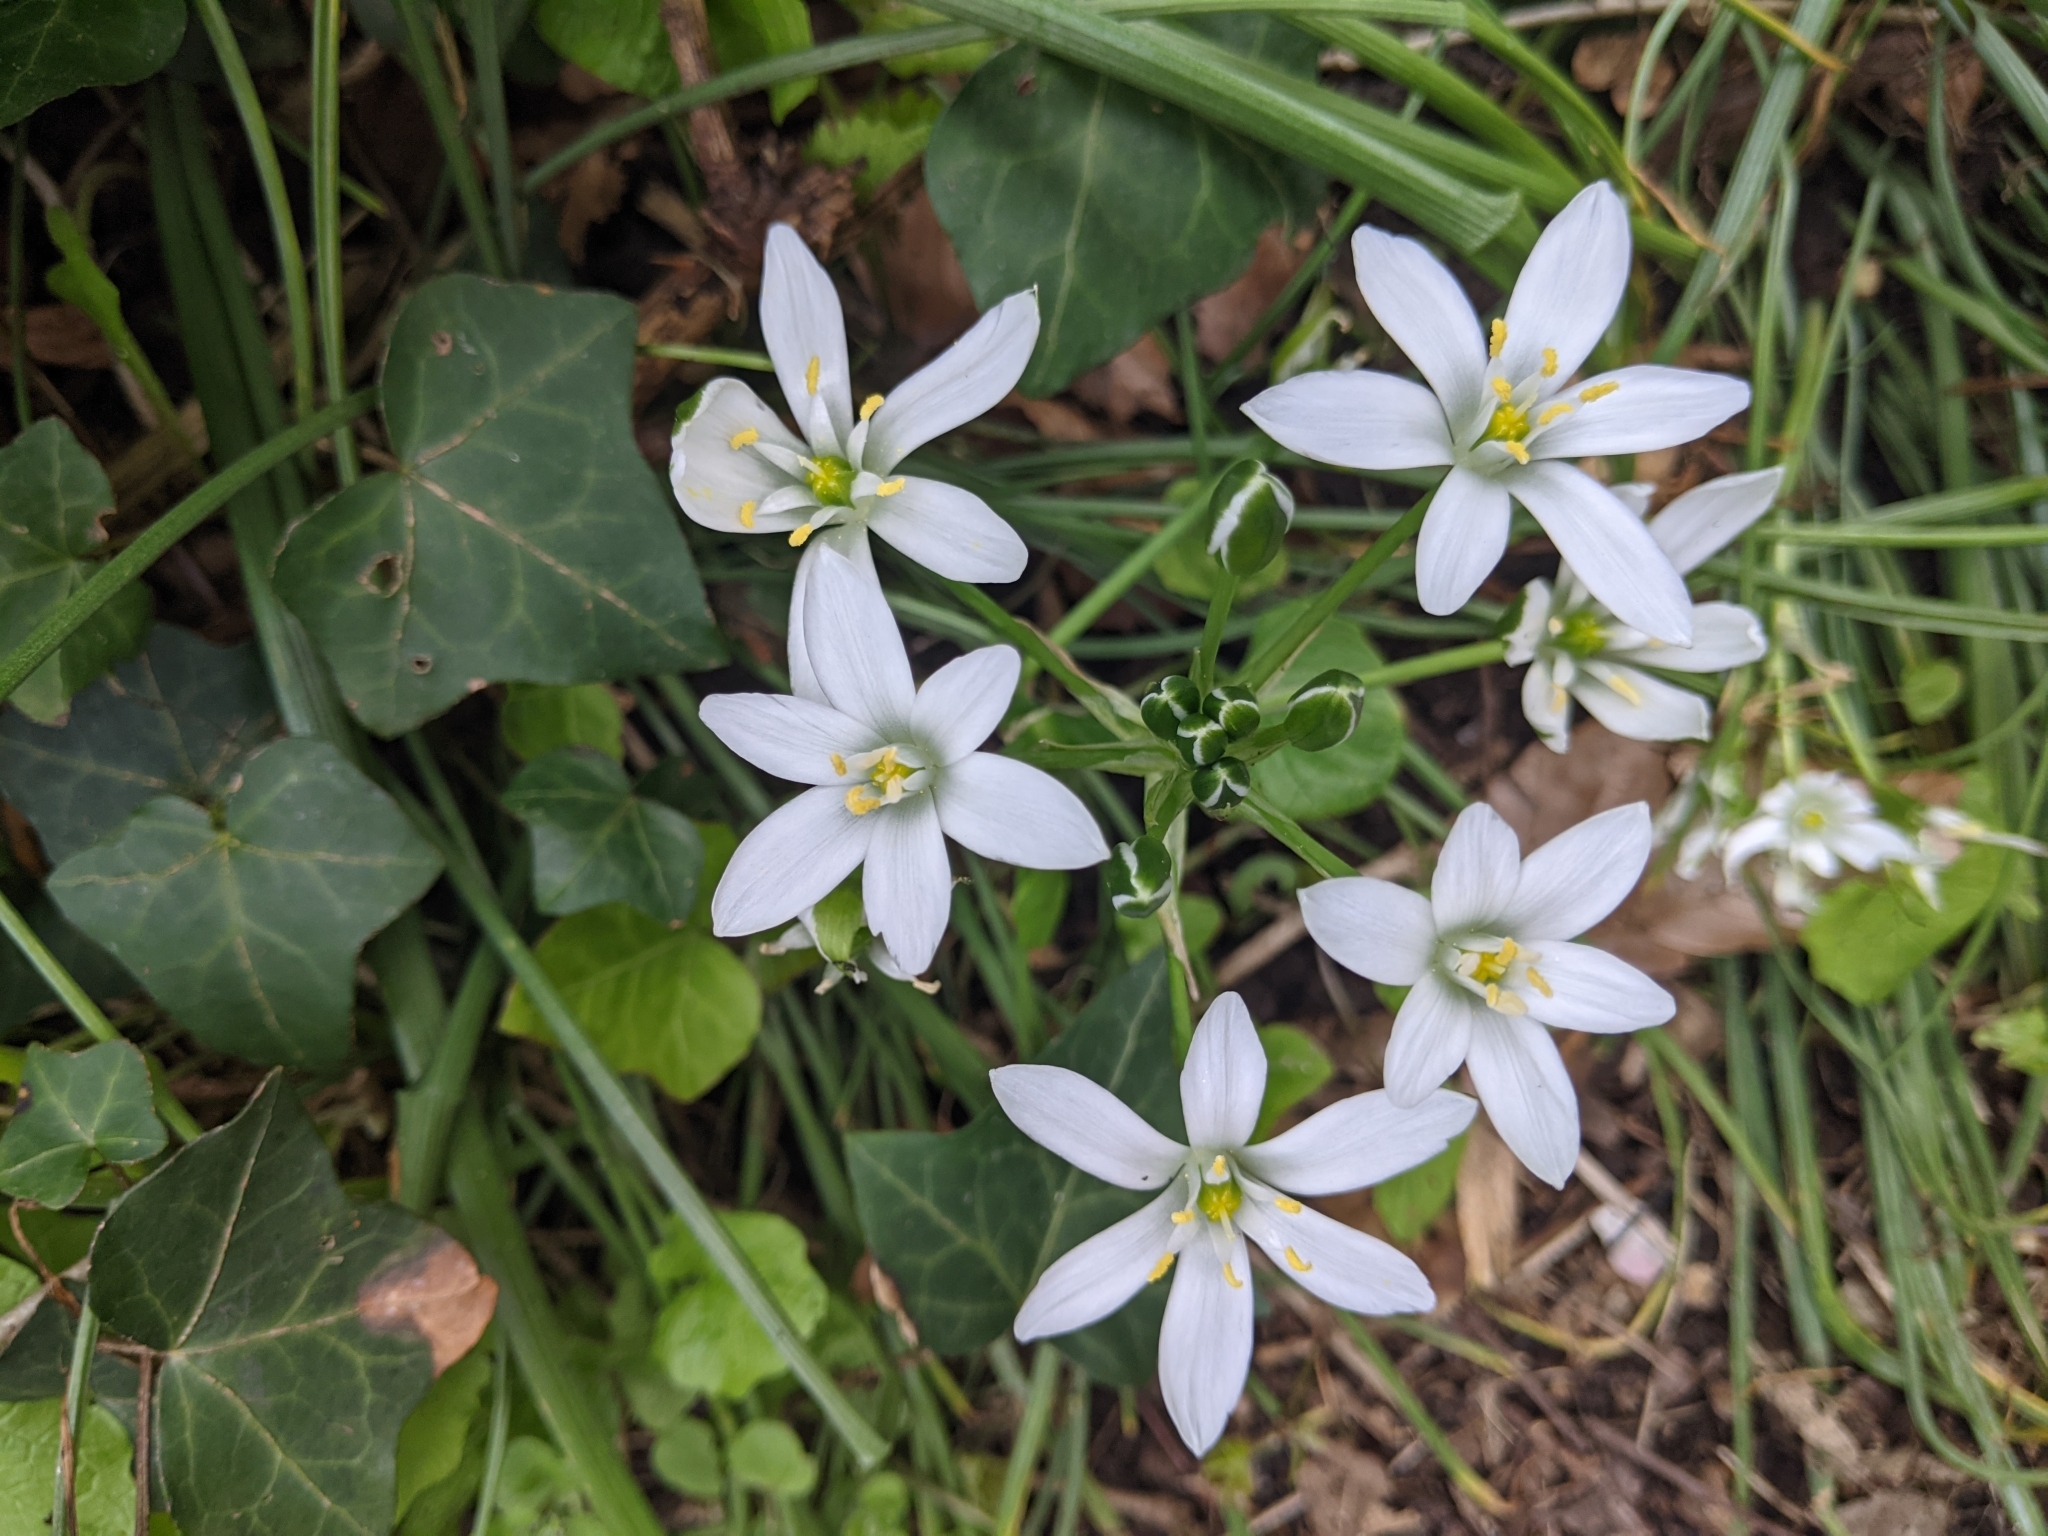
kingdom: Plantae
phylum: Tracheophyta
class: Liliopsida
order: Asparagales
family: Asparagaceae
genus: Ornithogalum
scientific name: Ornithogalum umbellatum
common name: Garden star-of-bethlehem
